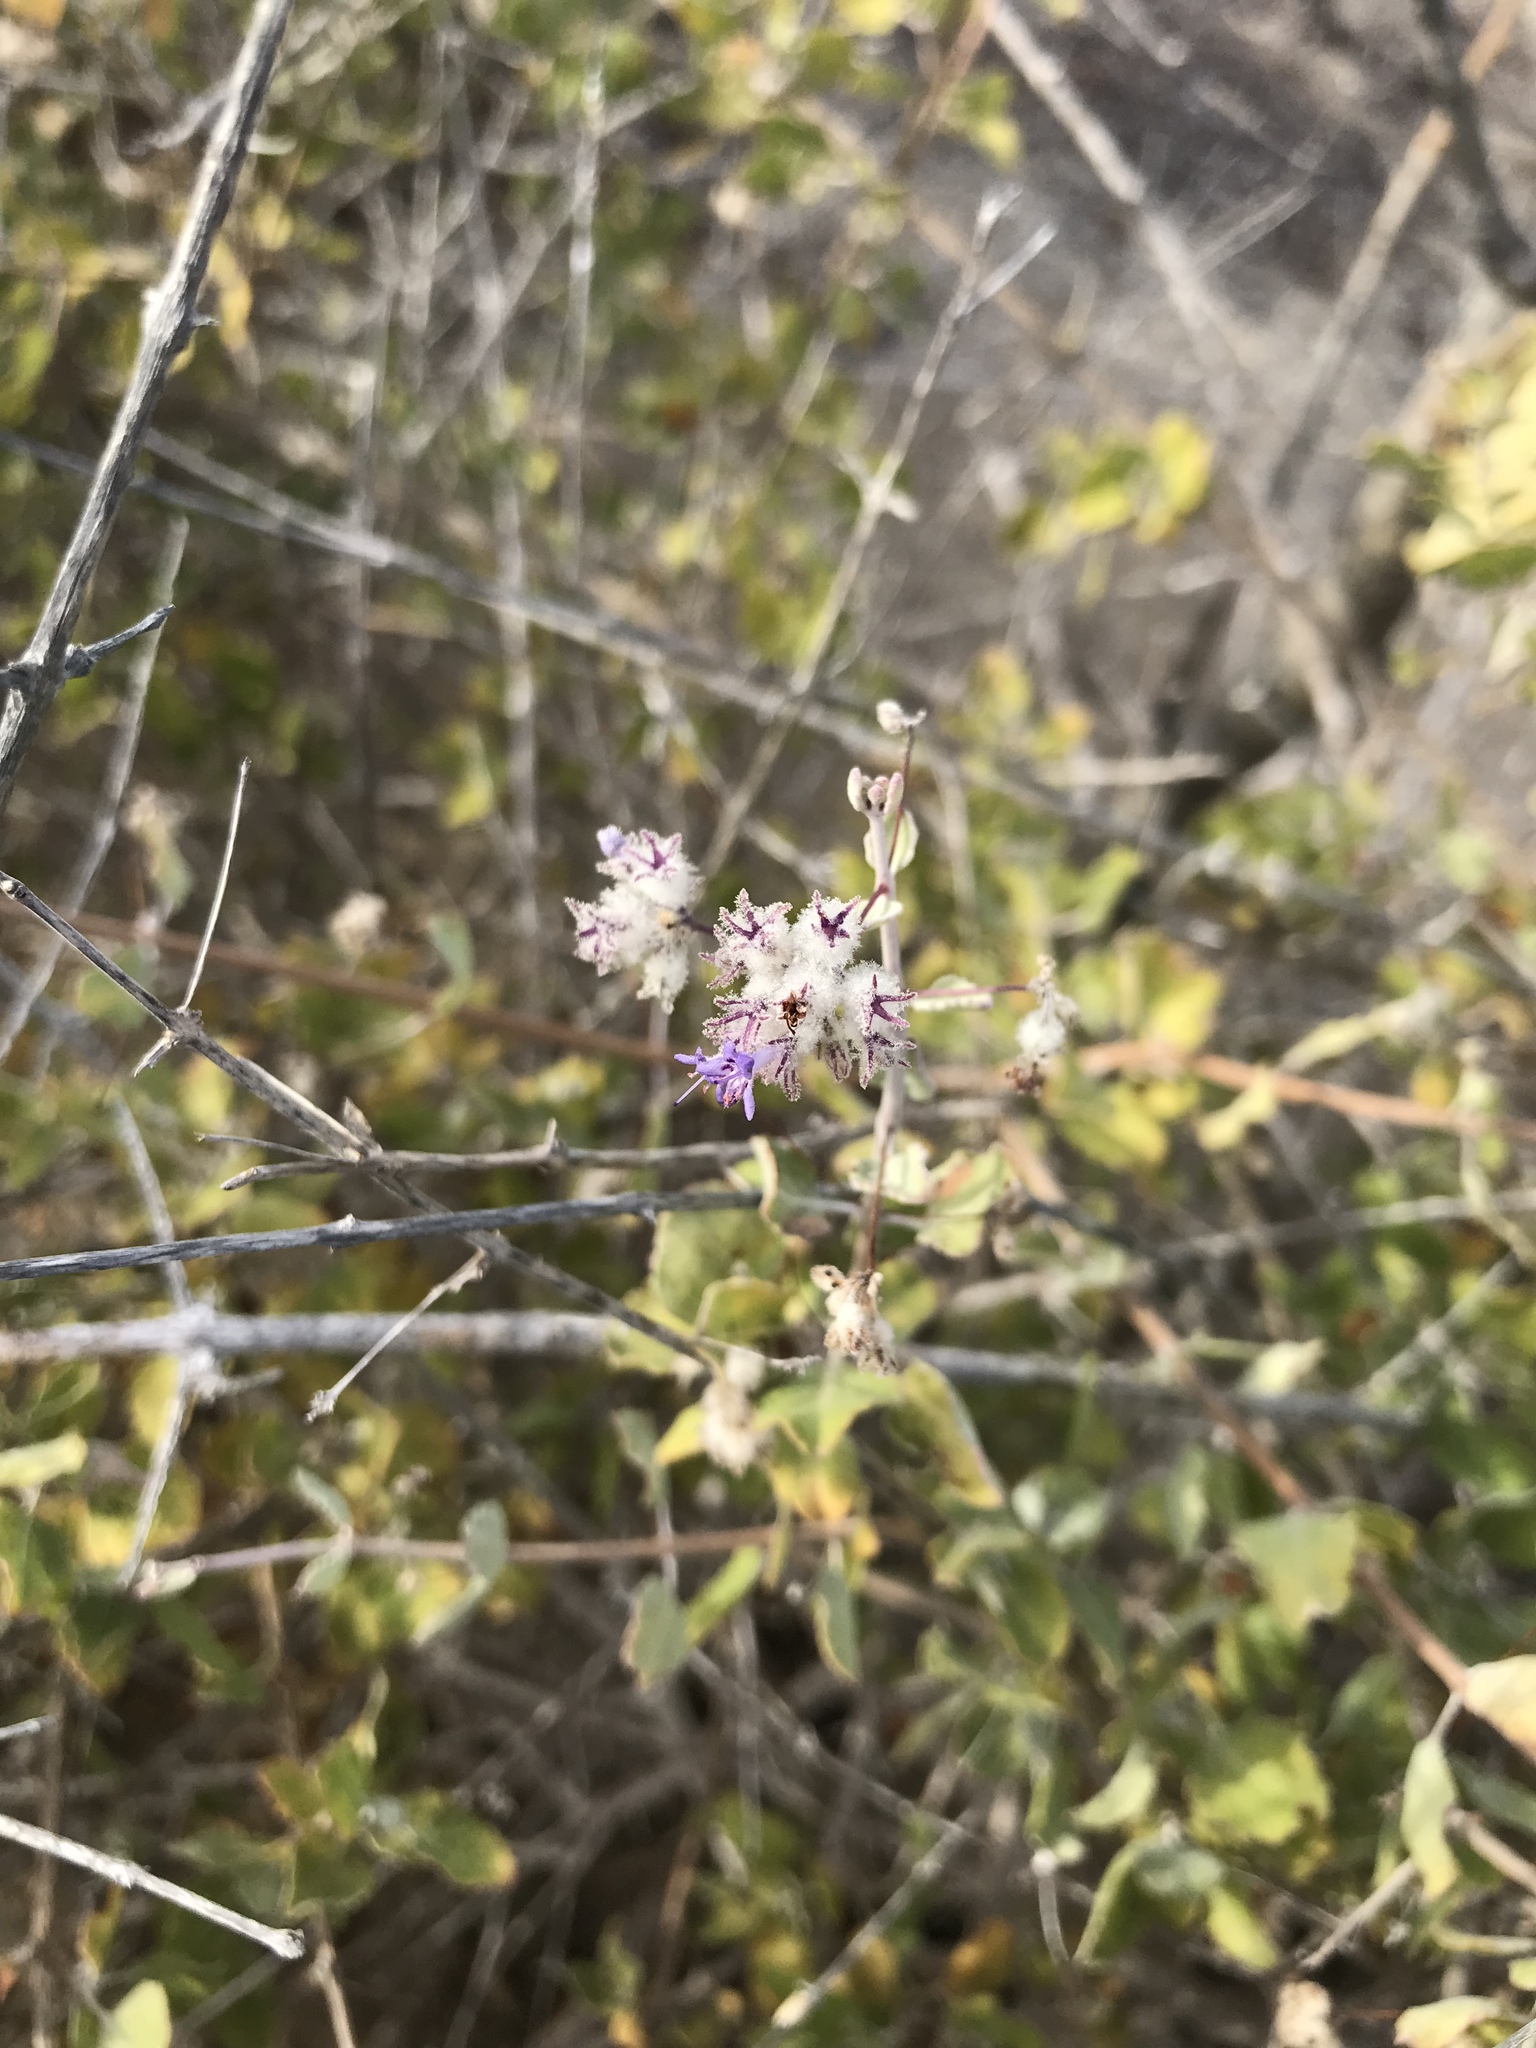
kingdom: Plantae
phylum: Tracheophyta
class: Magnoliopsida
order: Lamiales
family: Lamiaceae
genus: Condea
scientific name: Condea laniflora
